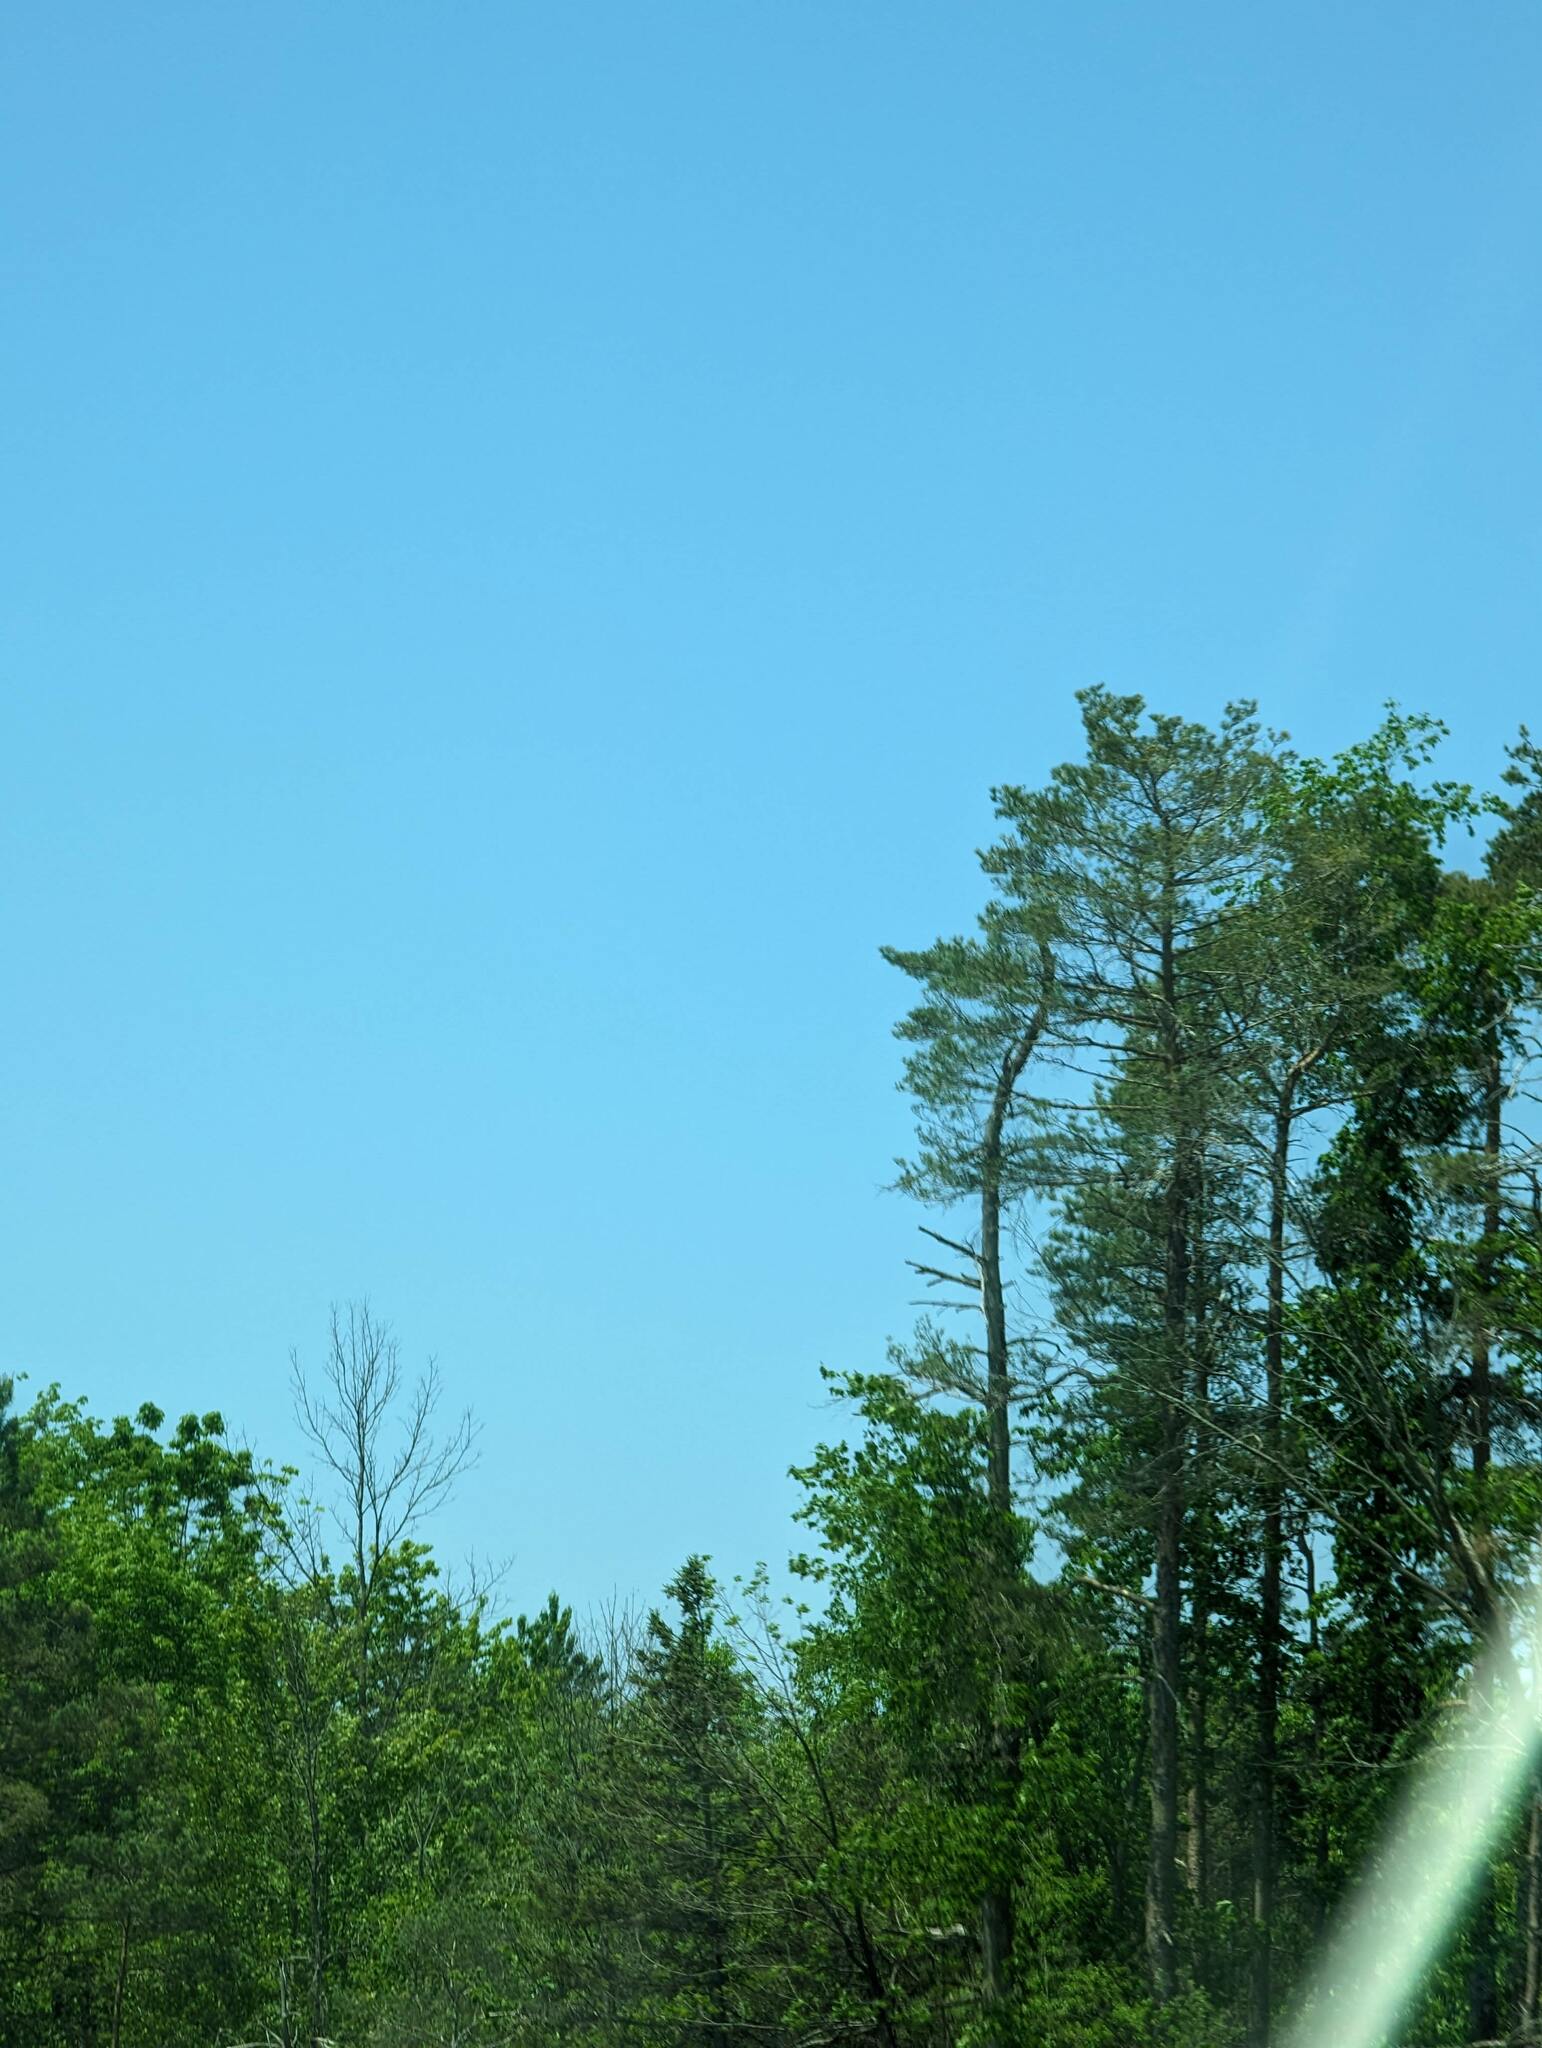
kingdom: Plantae
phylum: Tracheophyta
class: Pinopsida
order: Pinales
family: Pinaceae
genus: Pinus
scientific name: Pinus strobus
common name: Weymouth pine
